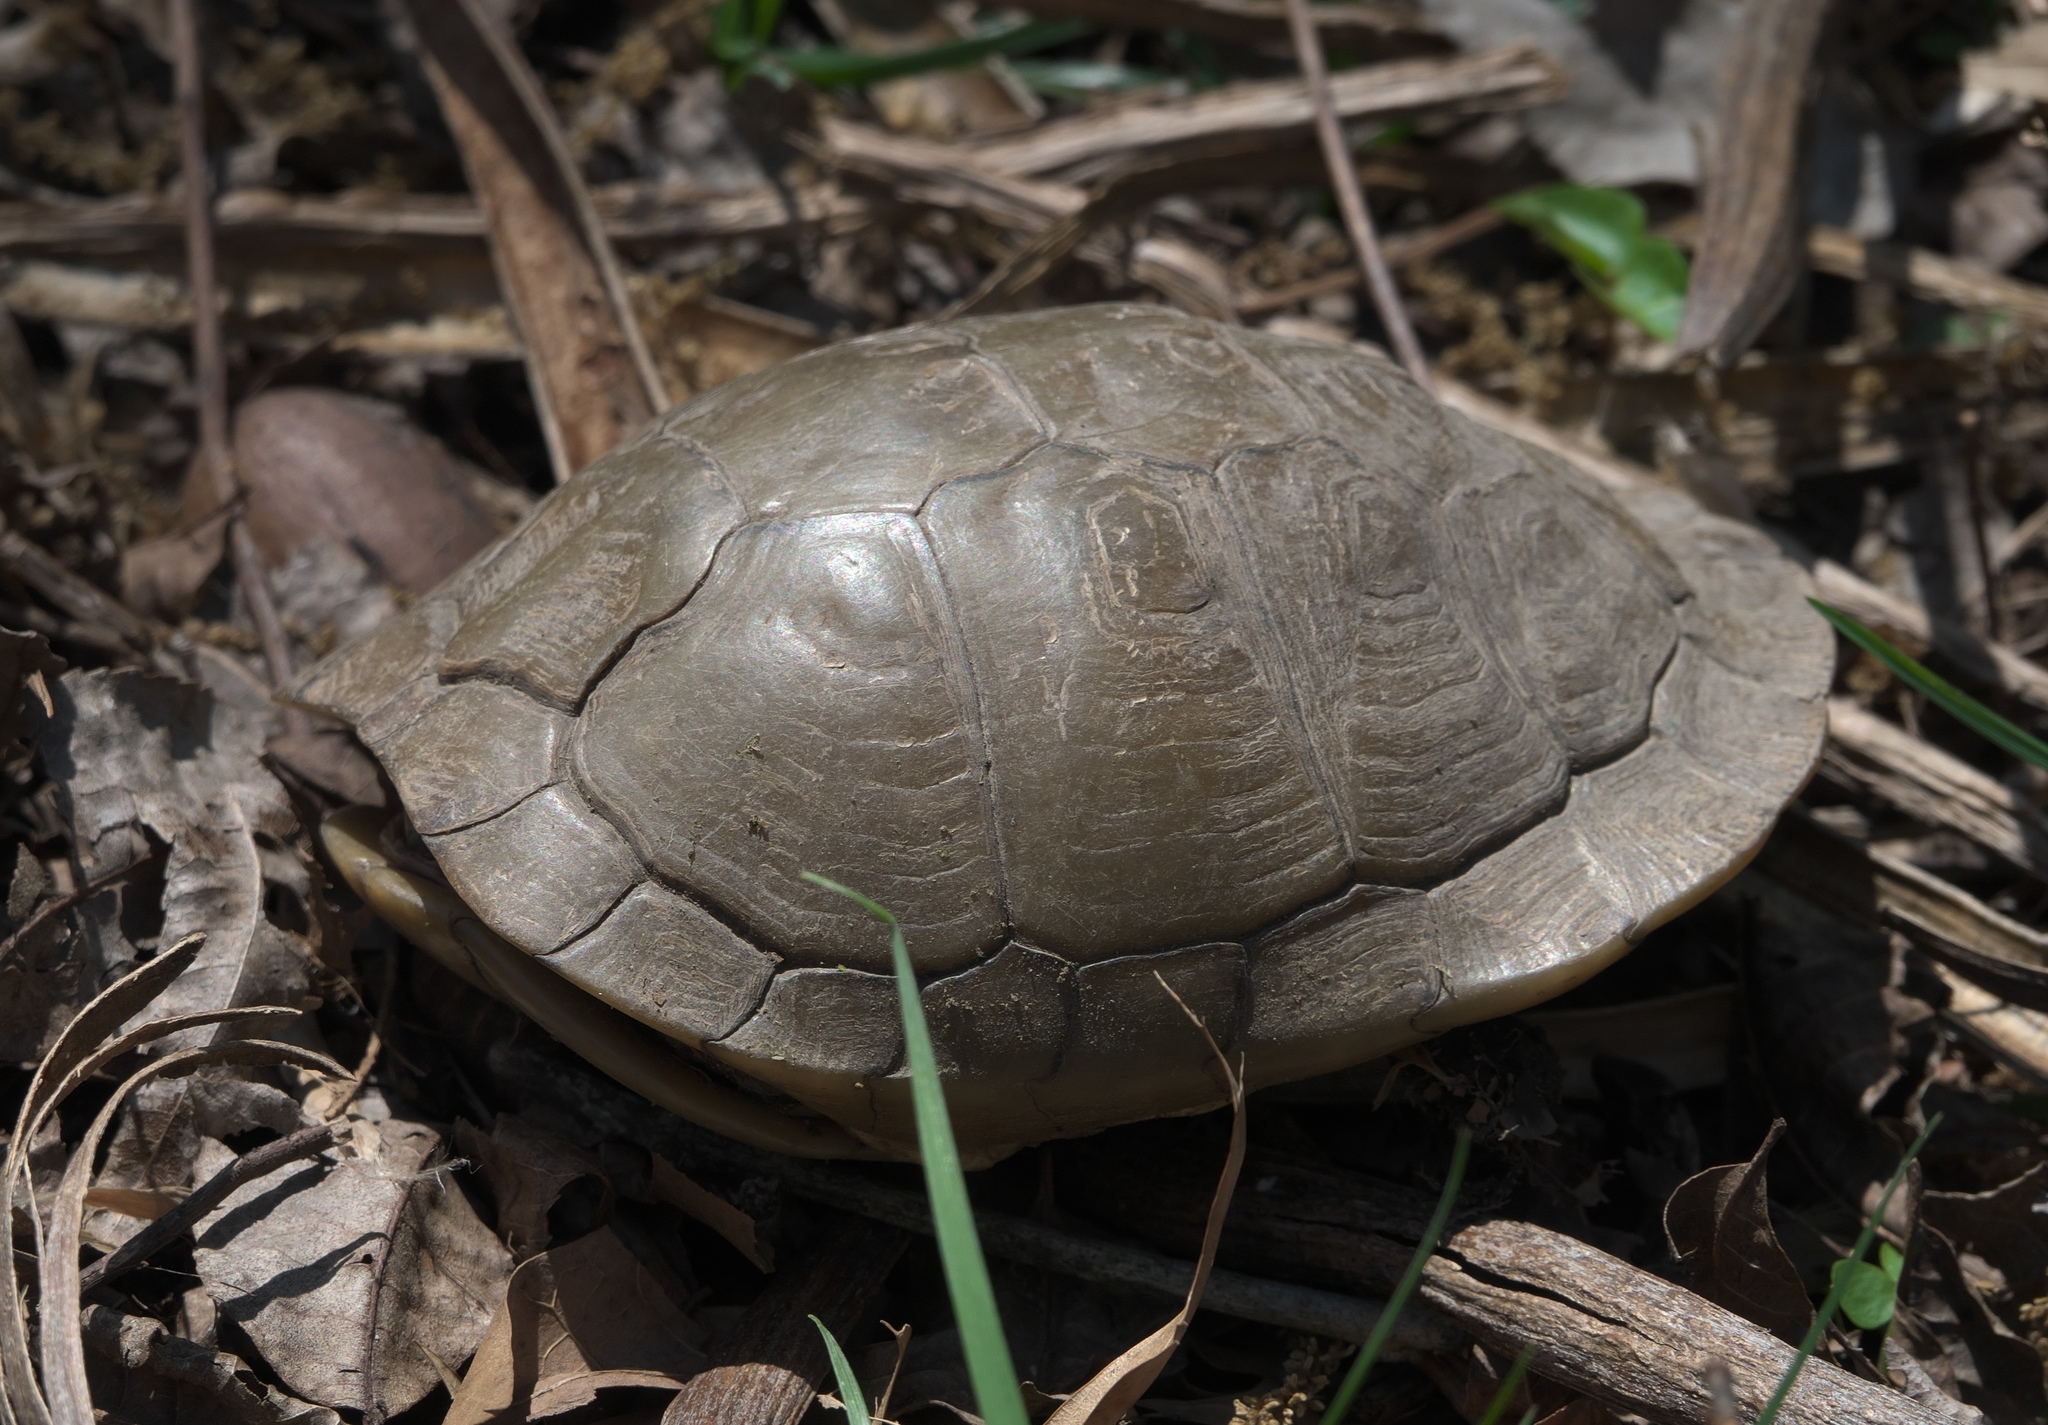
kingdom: Animalia
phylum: Chordata
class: Testudines
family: Emydidae
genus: Terrapene
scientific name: Terrapene carolina
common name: Common box turtle
